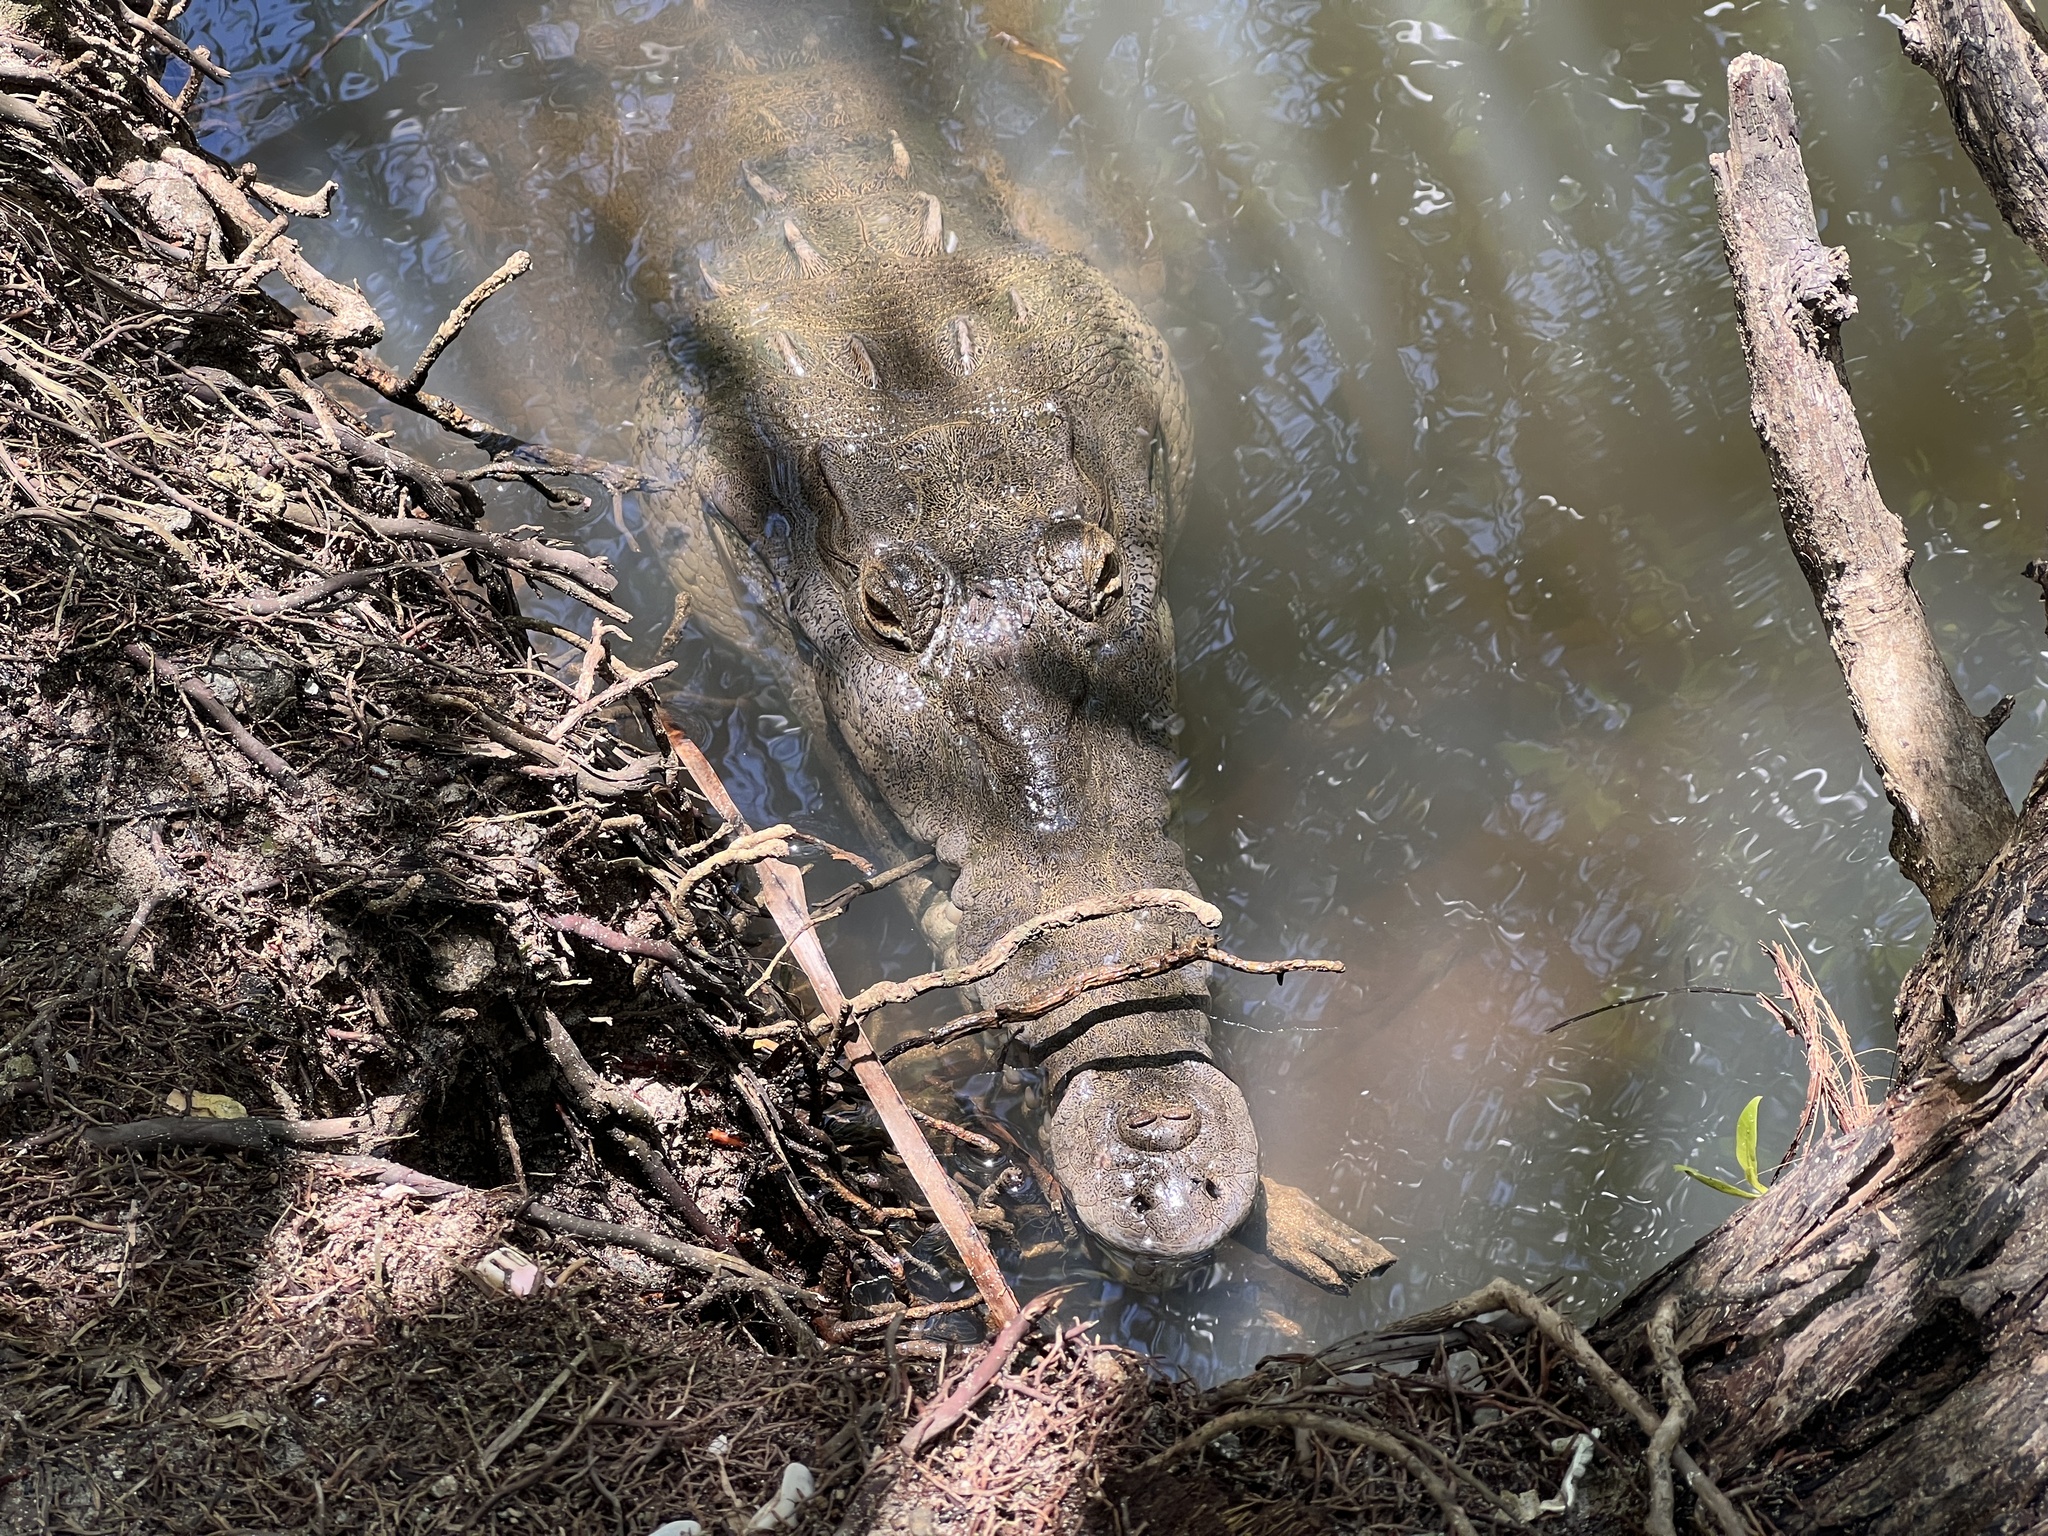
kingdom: Animalia
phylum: Chordata
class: Crocodylia
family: Crocodylidae
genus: Crocodylus
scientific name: Crocodylus acutus
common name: American crocodile
